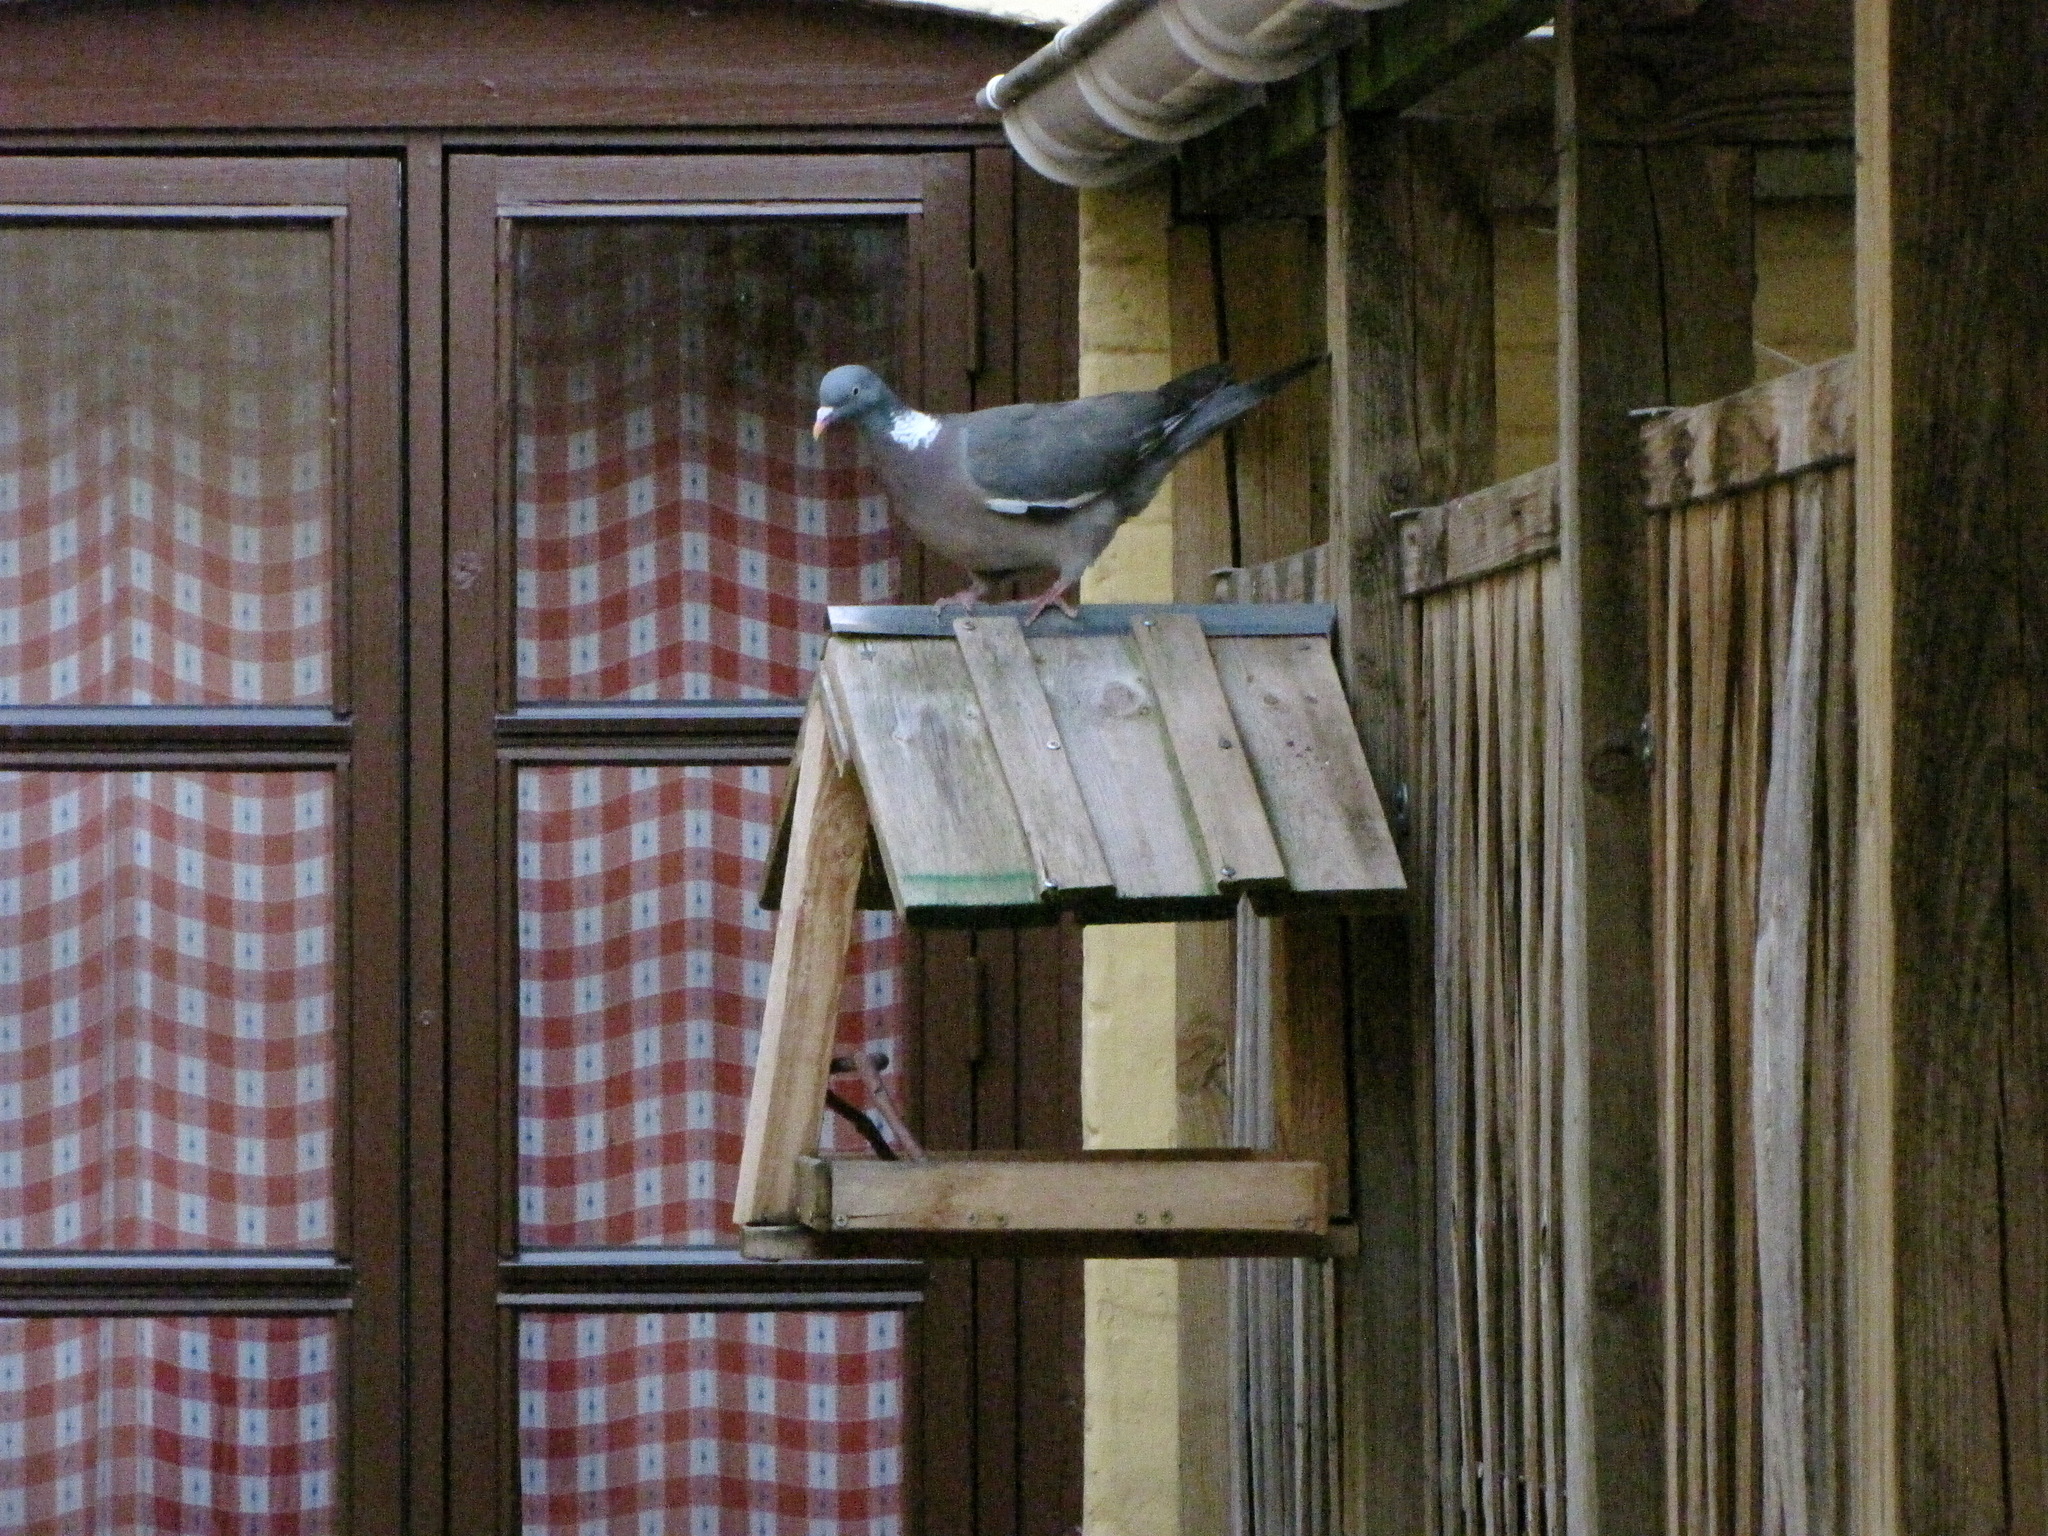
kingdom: Animalia
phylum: Chordata
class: Aves
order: Columbiformes
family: Columbidae
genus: Columba
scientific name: Columba palumbus
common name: Common wood pigeon
